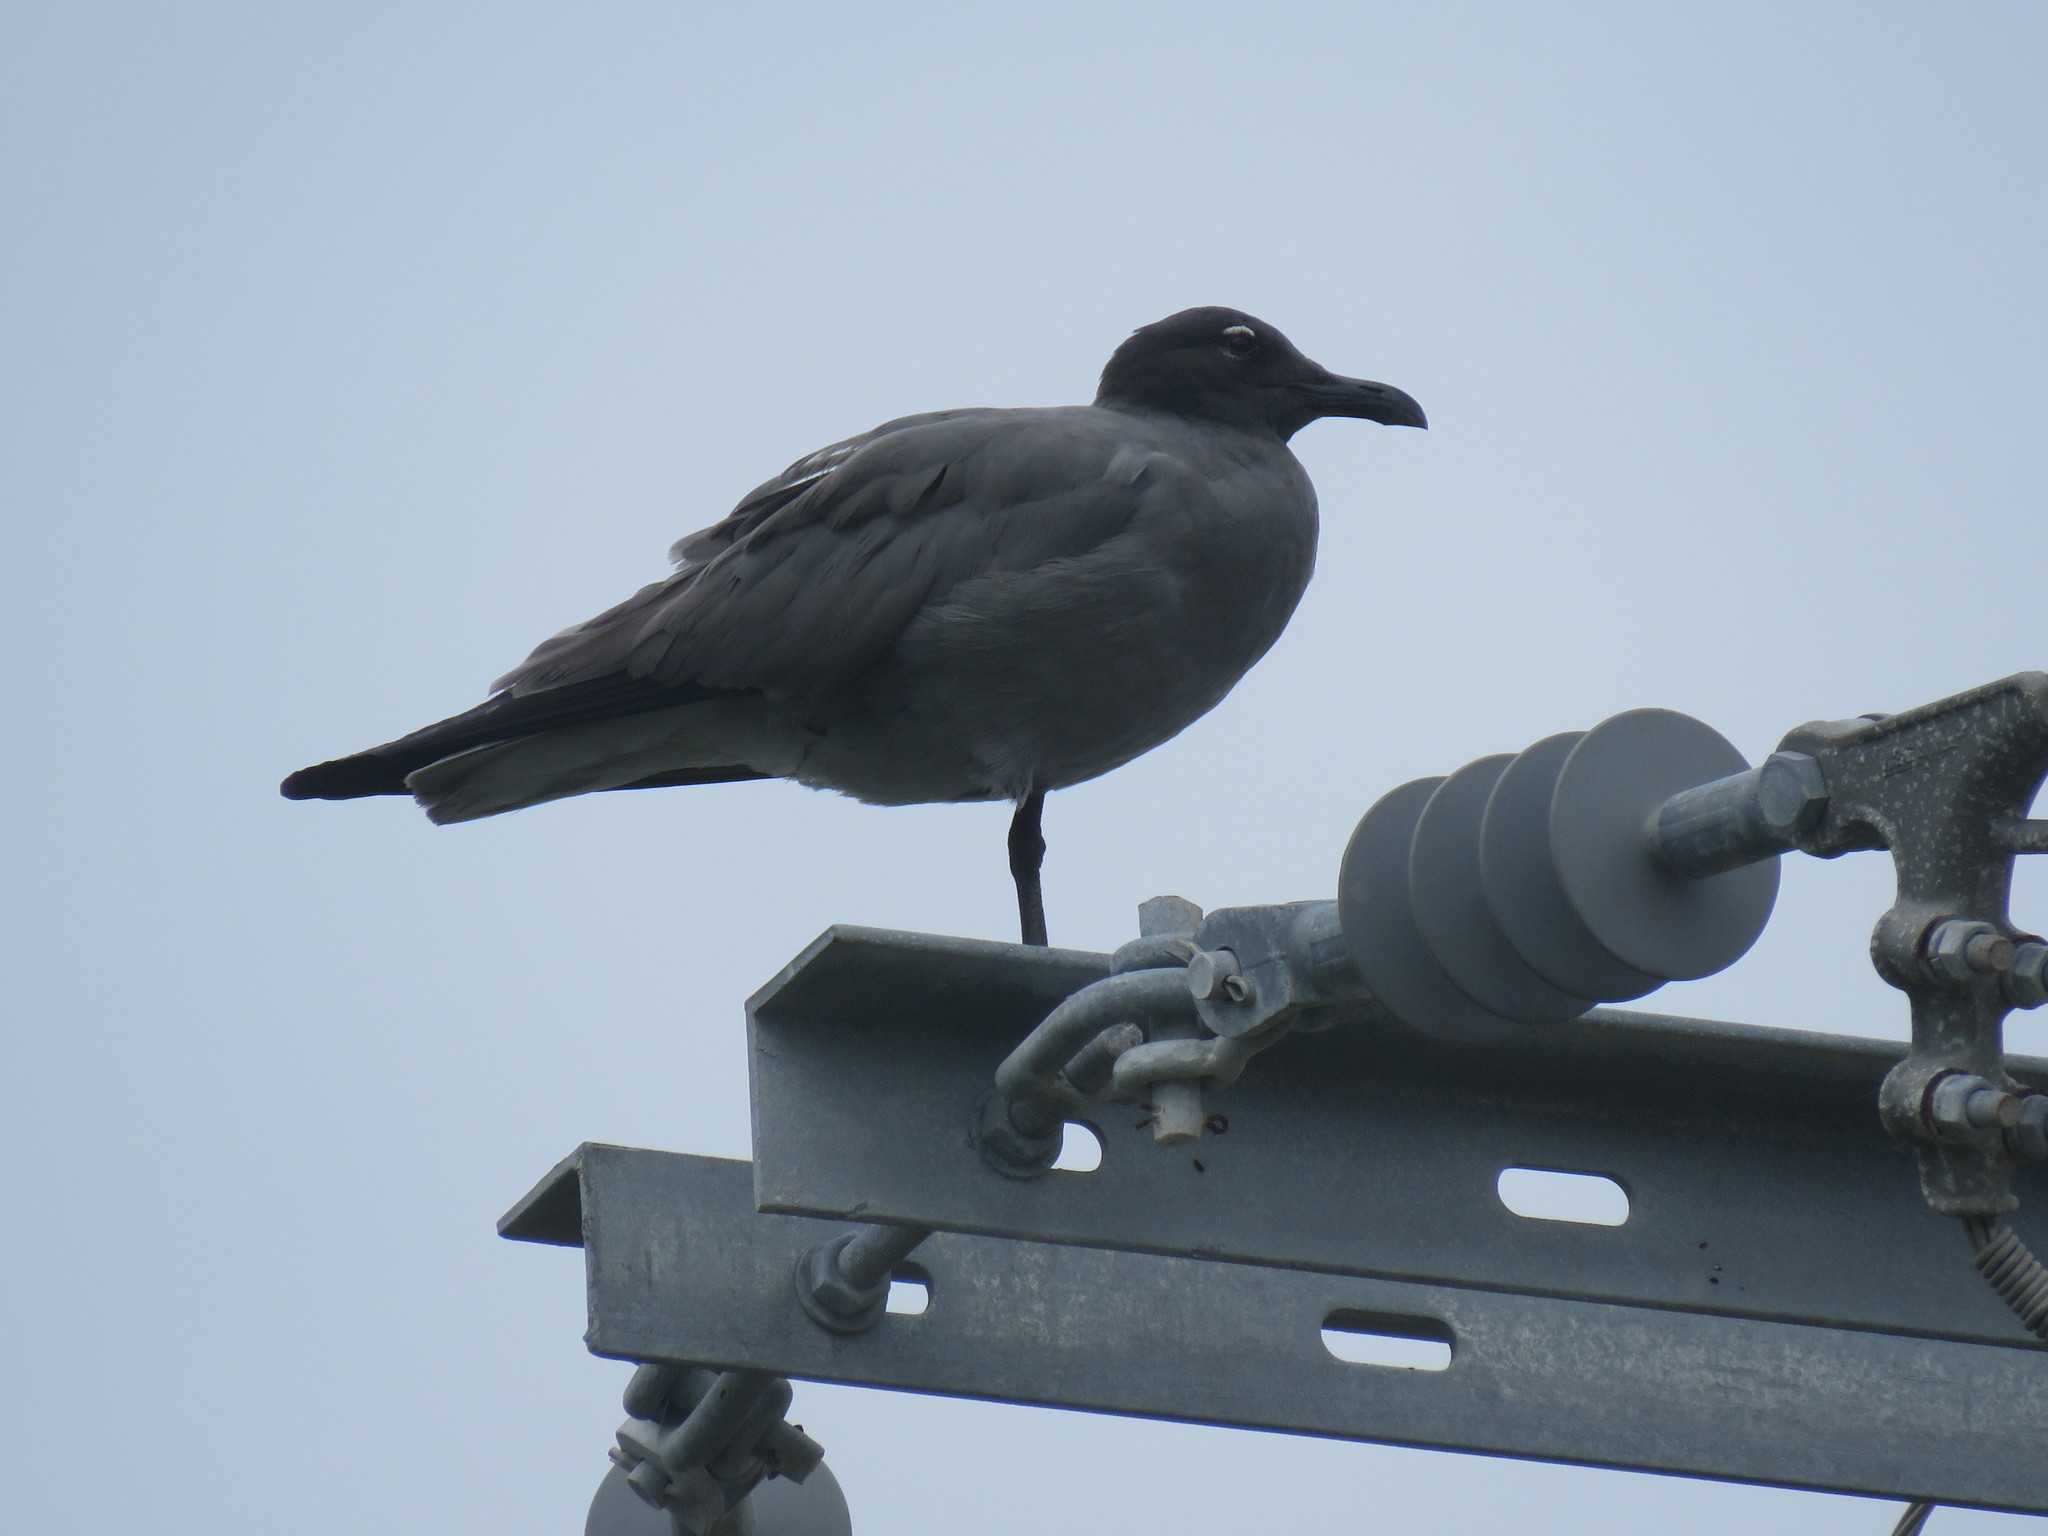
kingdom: Animalia
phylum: Chordata
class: Aves
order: Charadriiformes
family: Laridae
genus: Leucophaeus
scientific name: Leucophaeus fuliginosus
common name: Lava gull
